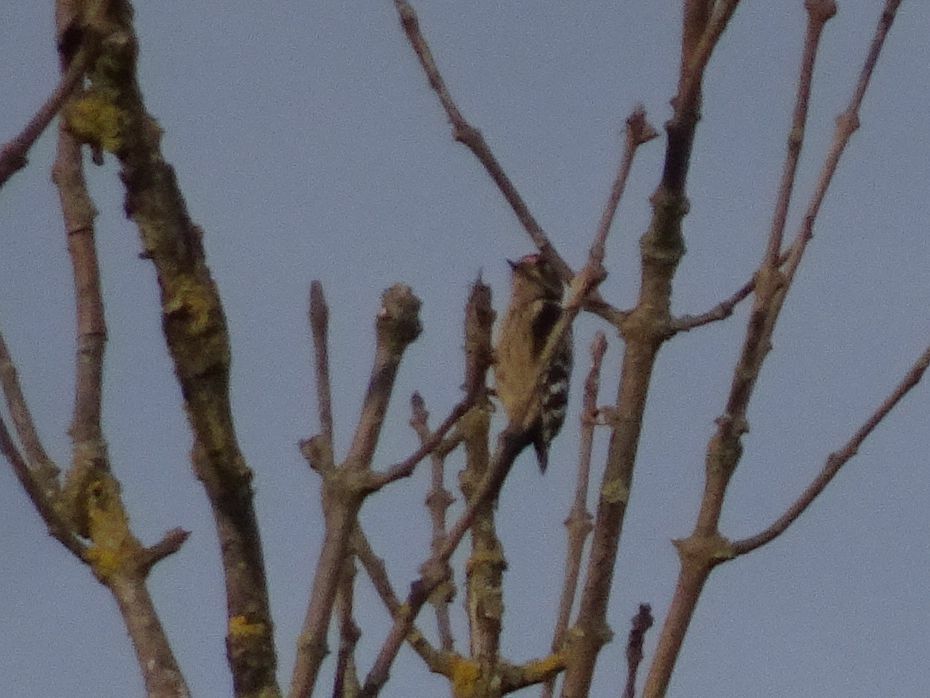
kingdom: Animalia
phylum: Chordata
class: Aves
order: Piciformes
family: Picidae
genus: Dryobates
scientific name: Dryobates minor
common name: Lesser spotted woodpecker
